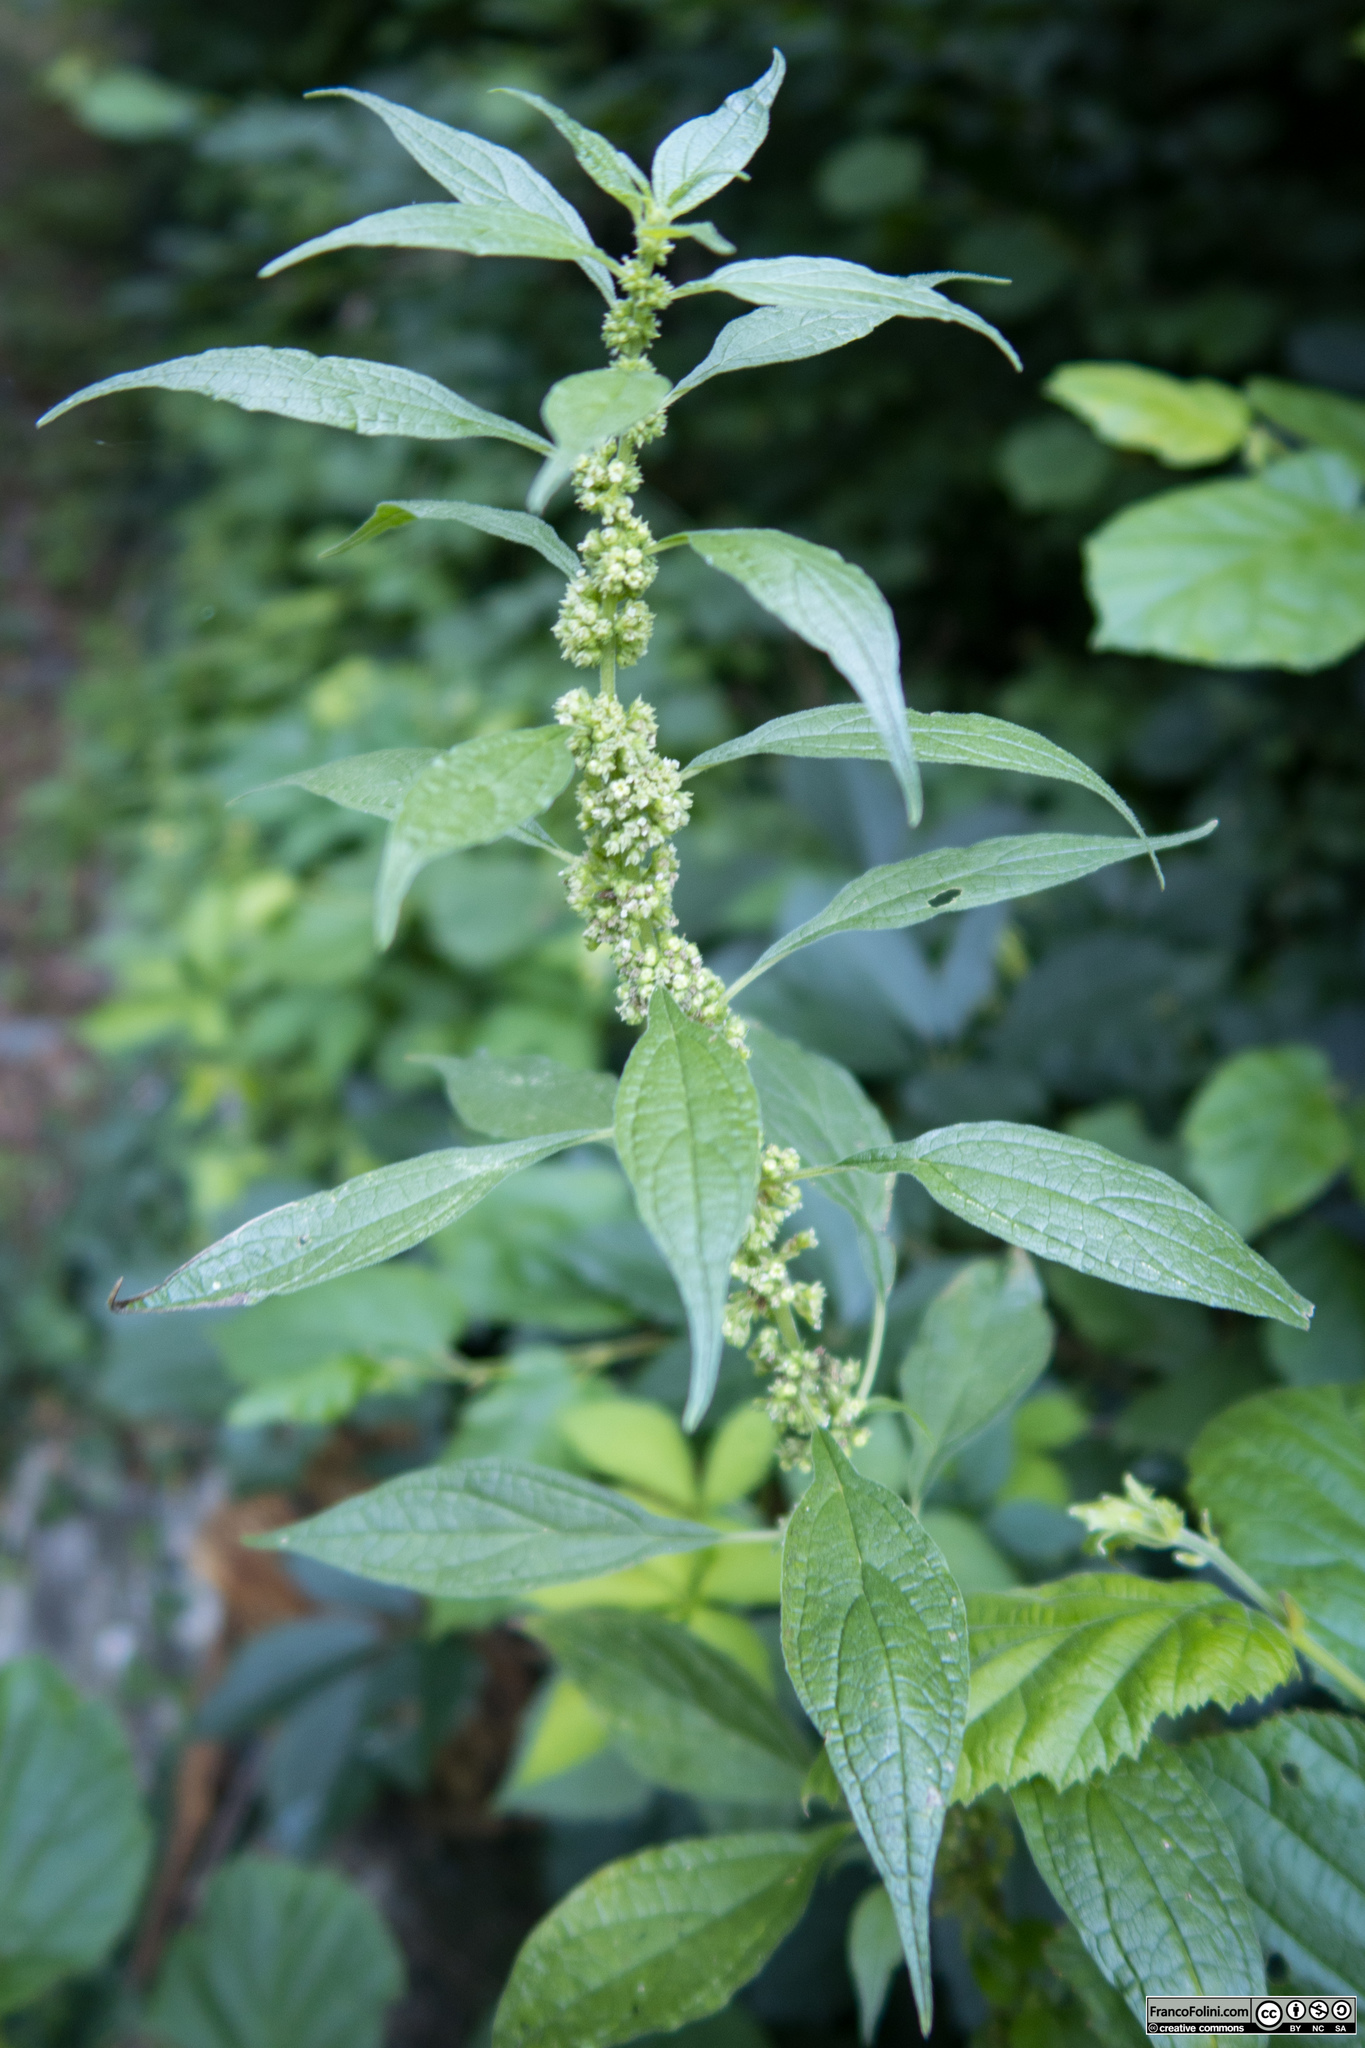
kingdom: Plantae
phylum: Tracheophyta
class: Magnoliopsida
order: Rosales
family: Urticaceae
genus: Parietaria
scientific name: Parietaria officinalis
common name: Eastern pellitory-of-the-wall
